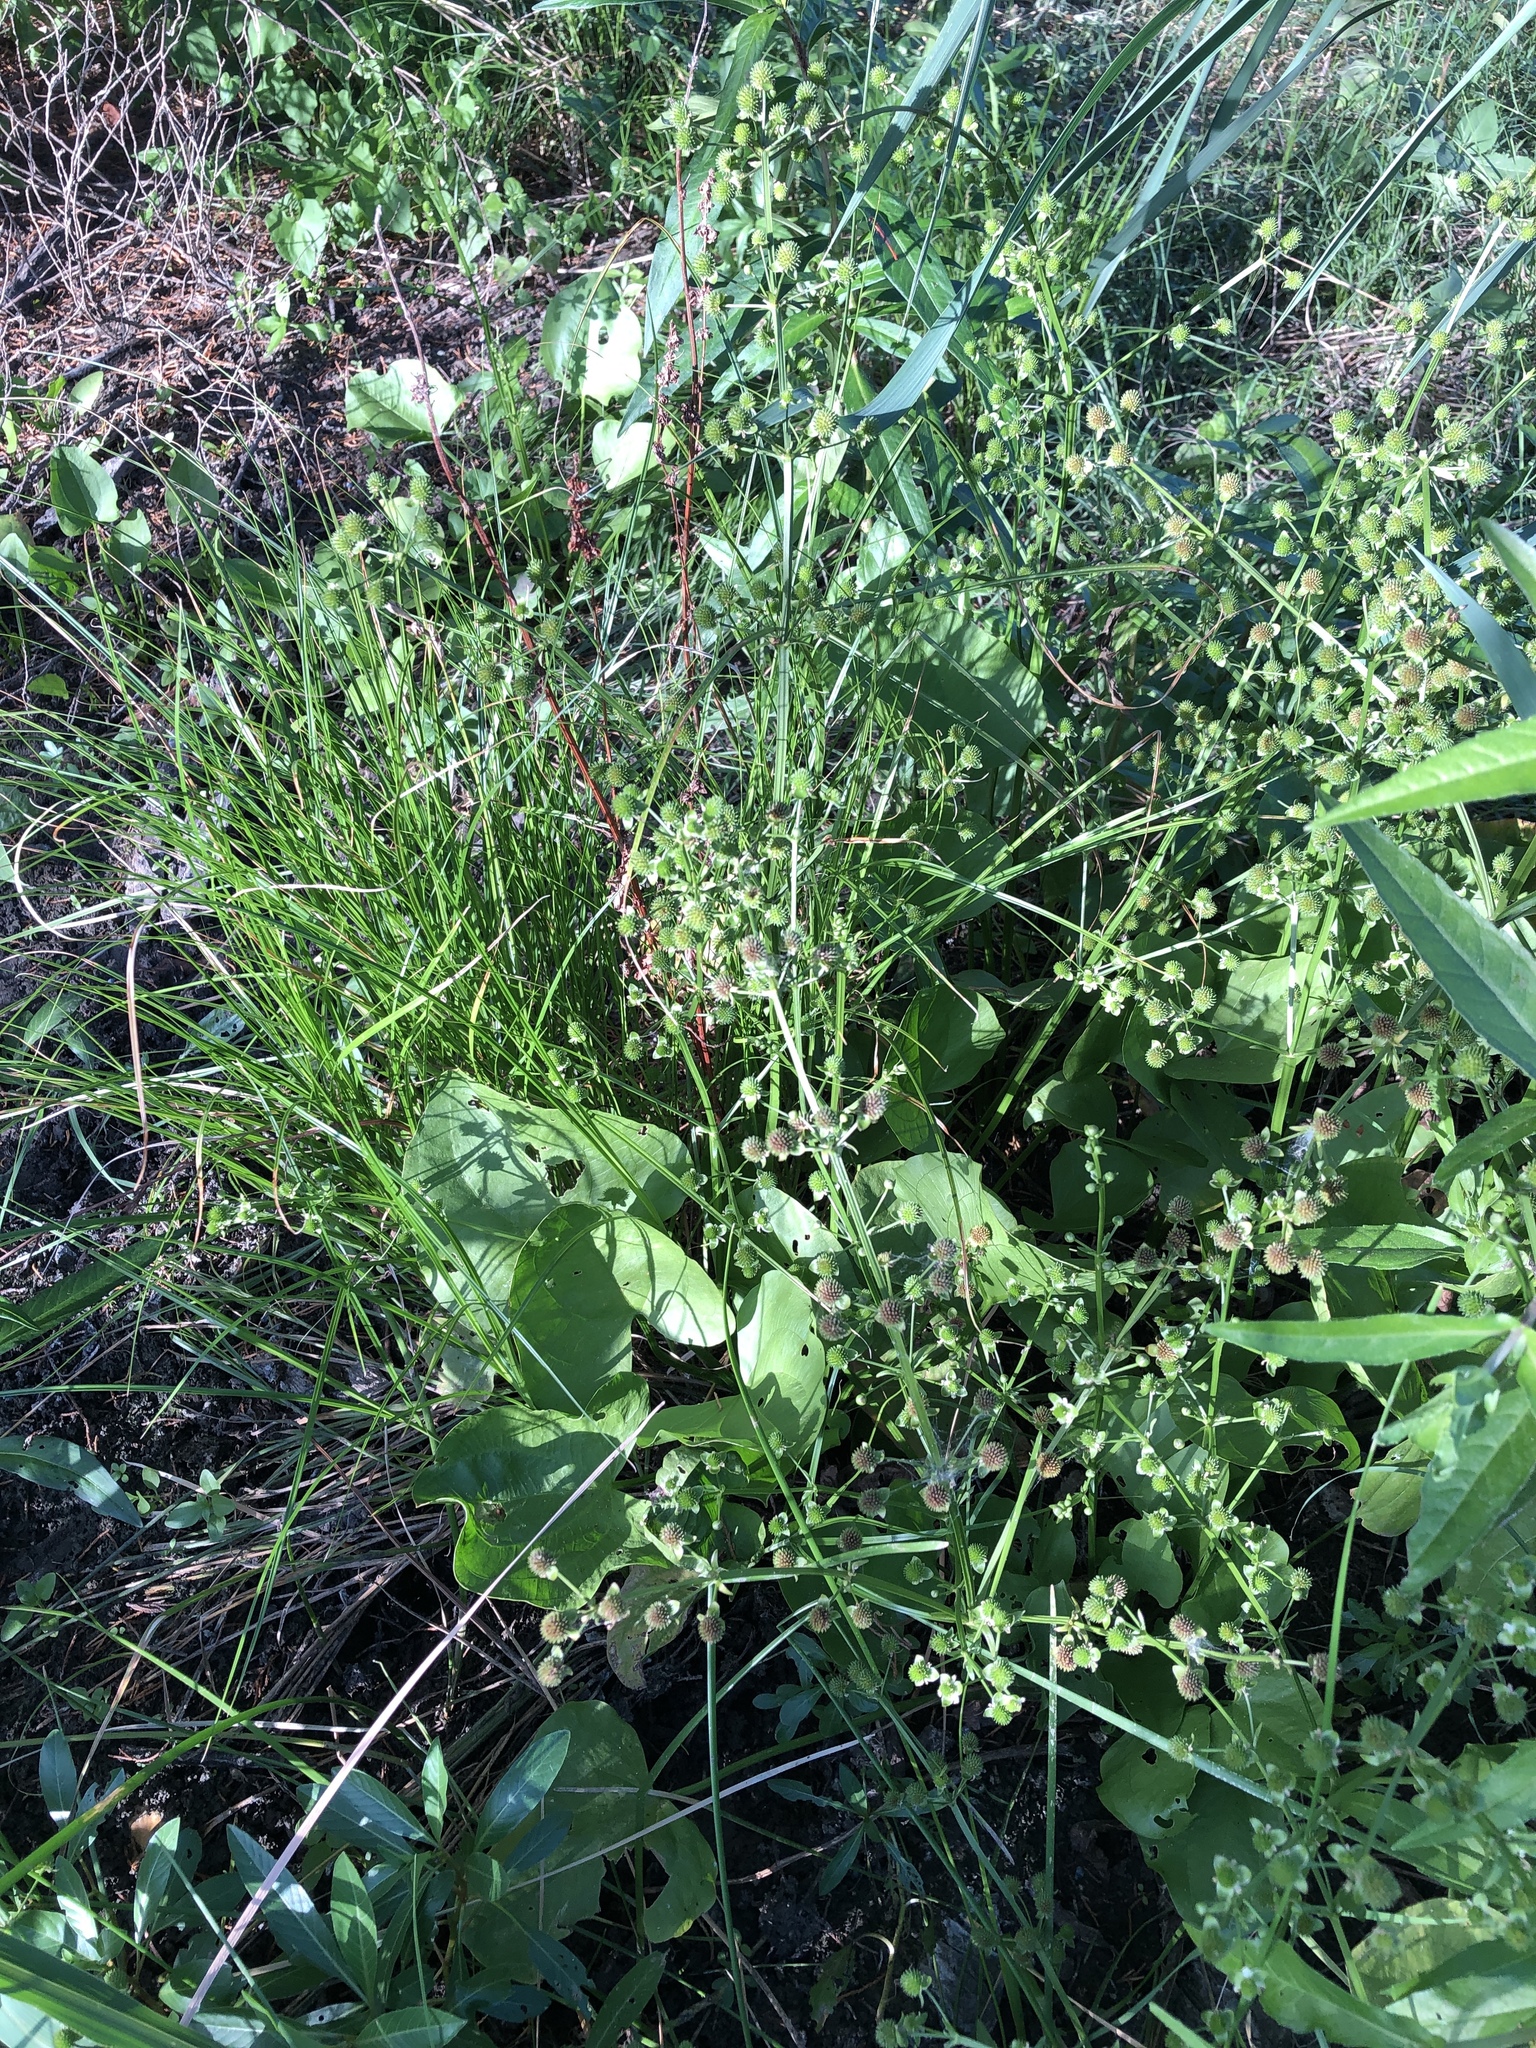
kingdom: Plantae
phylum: Tracheophyta
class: Liliopsida
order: Alismatales
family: Alismataceae
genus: Echinodorus
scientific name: Echinodorus berteroi
